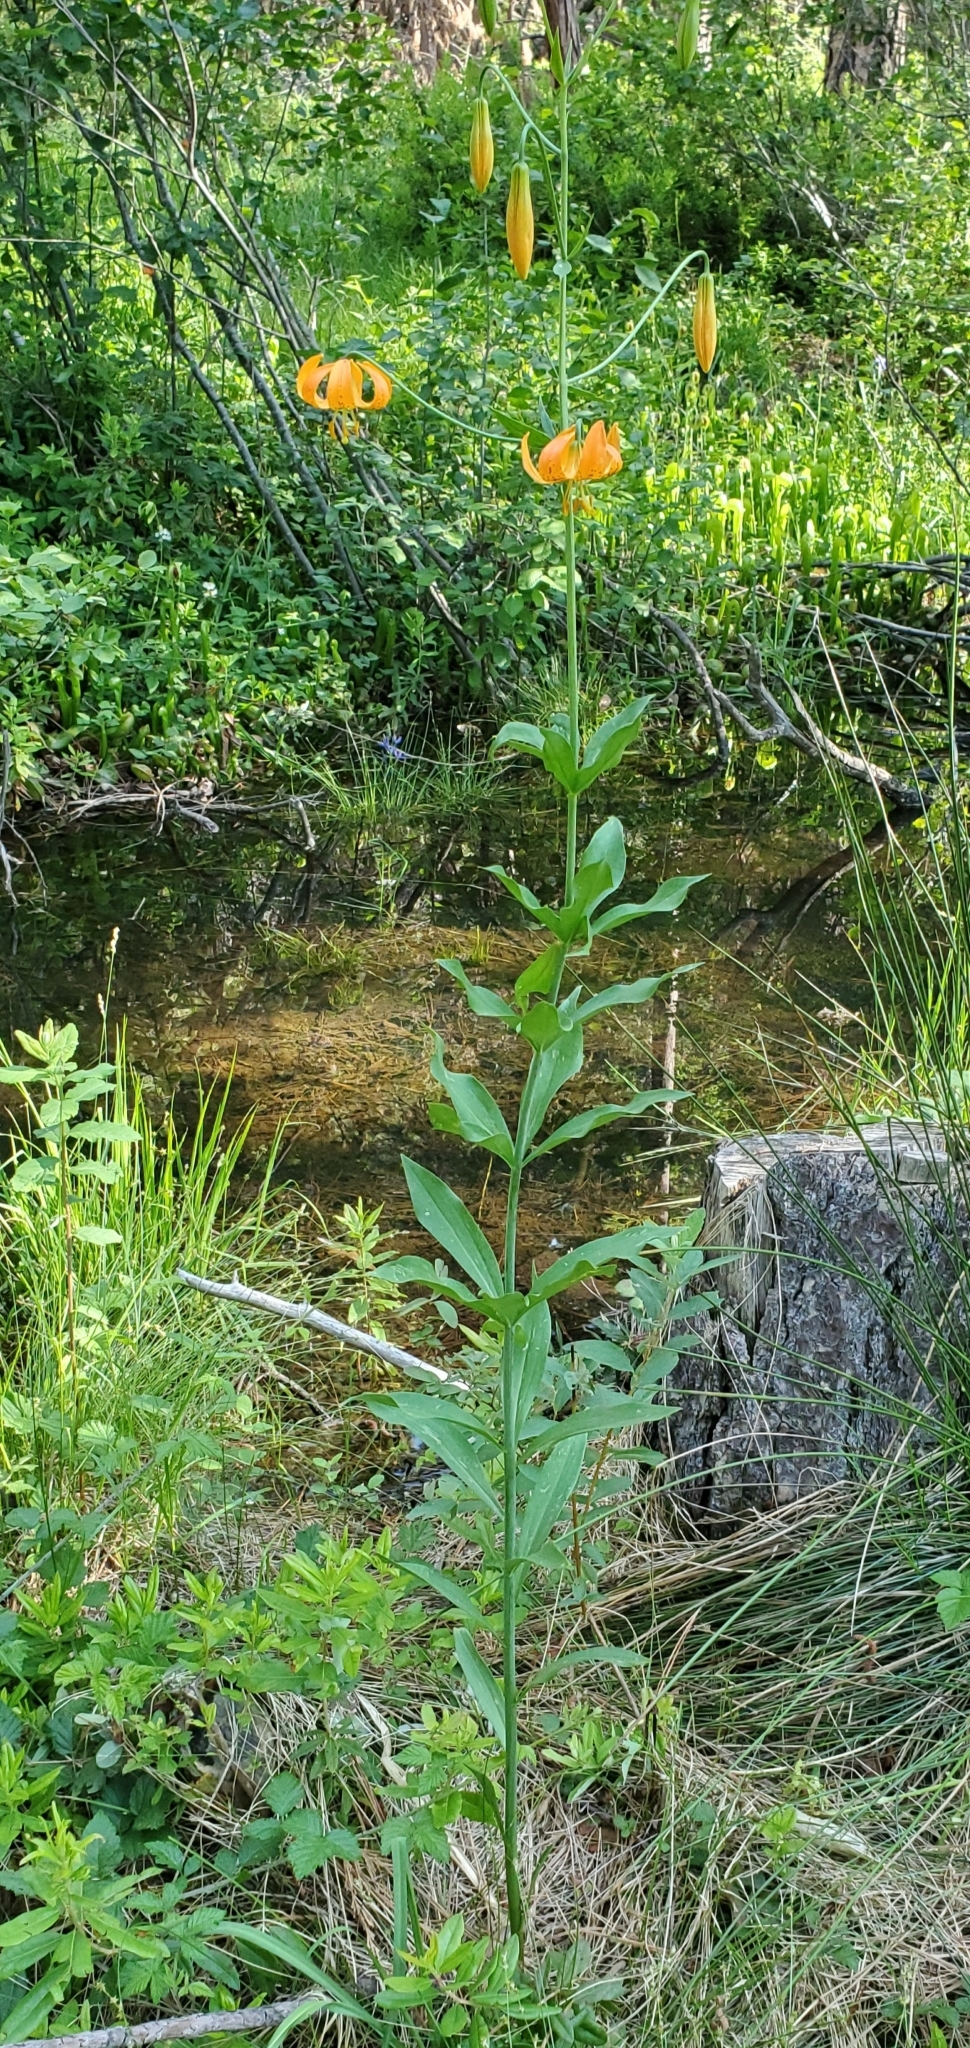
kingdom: Plantae
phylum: Tracheophyta
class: Liliopsida
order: Liliales
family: Liliaceae
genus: Lilium
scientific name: Lilium pardalinum
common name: Panther lily
